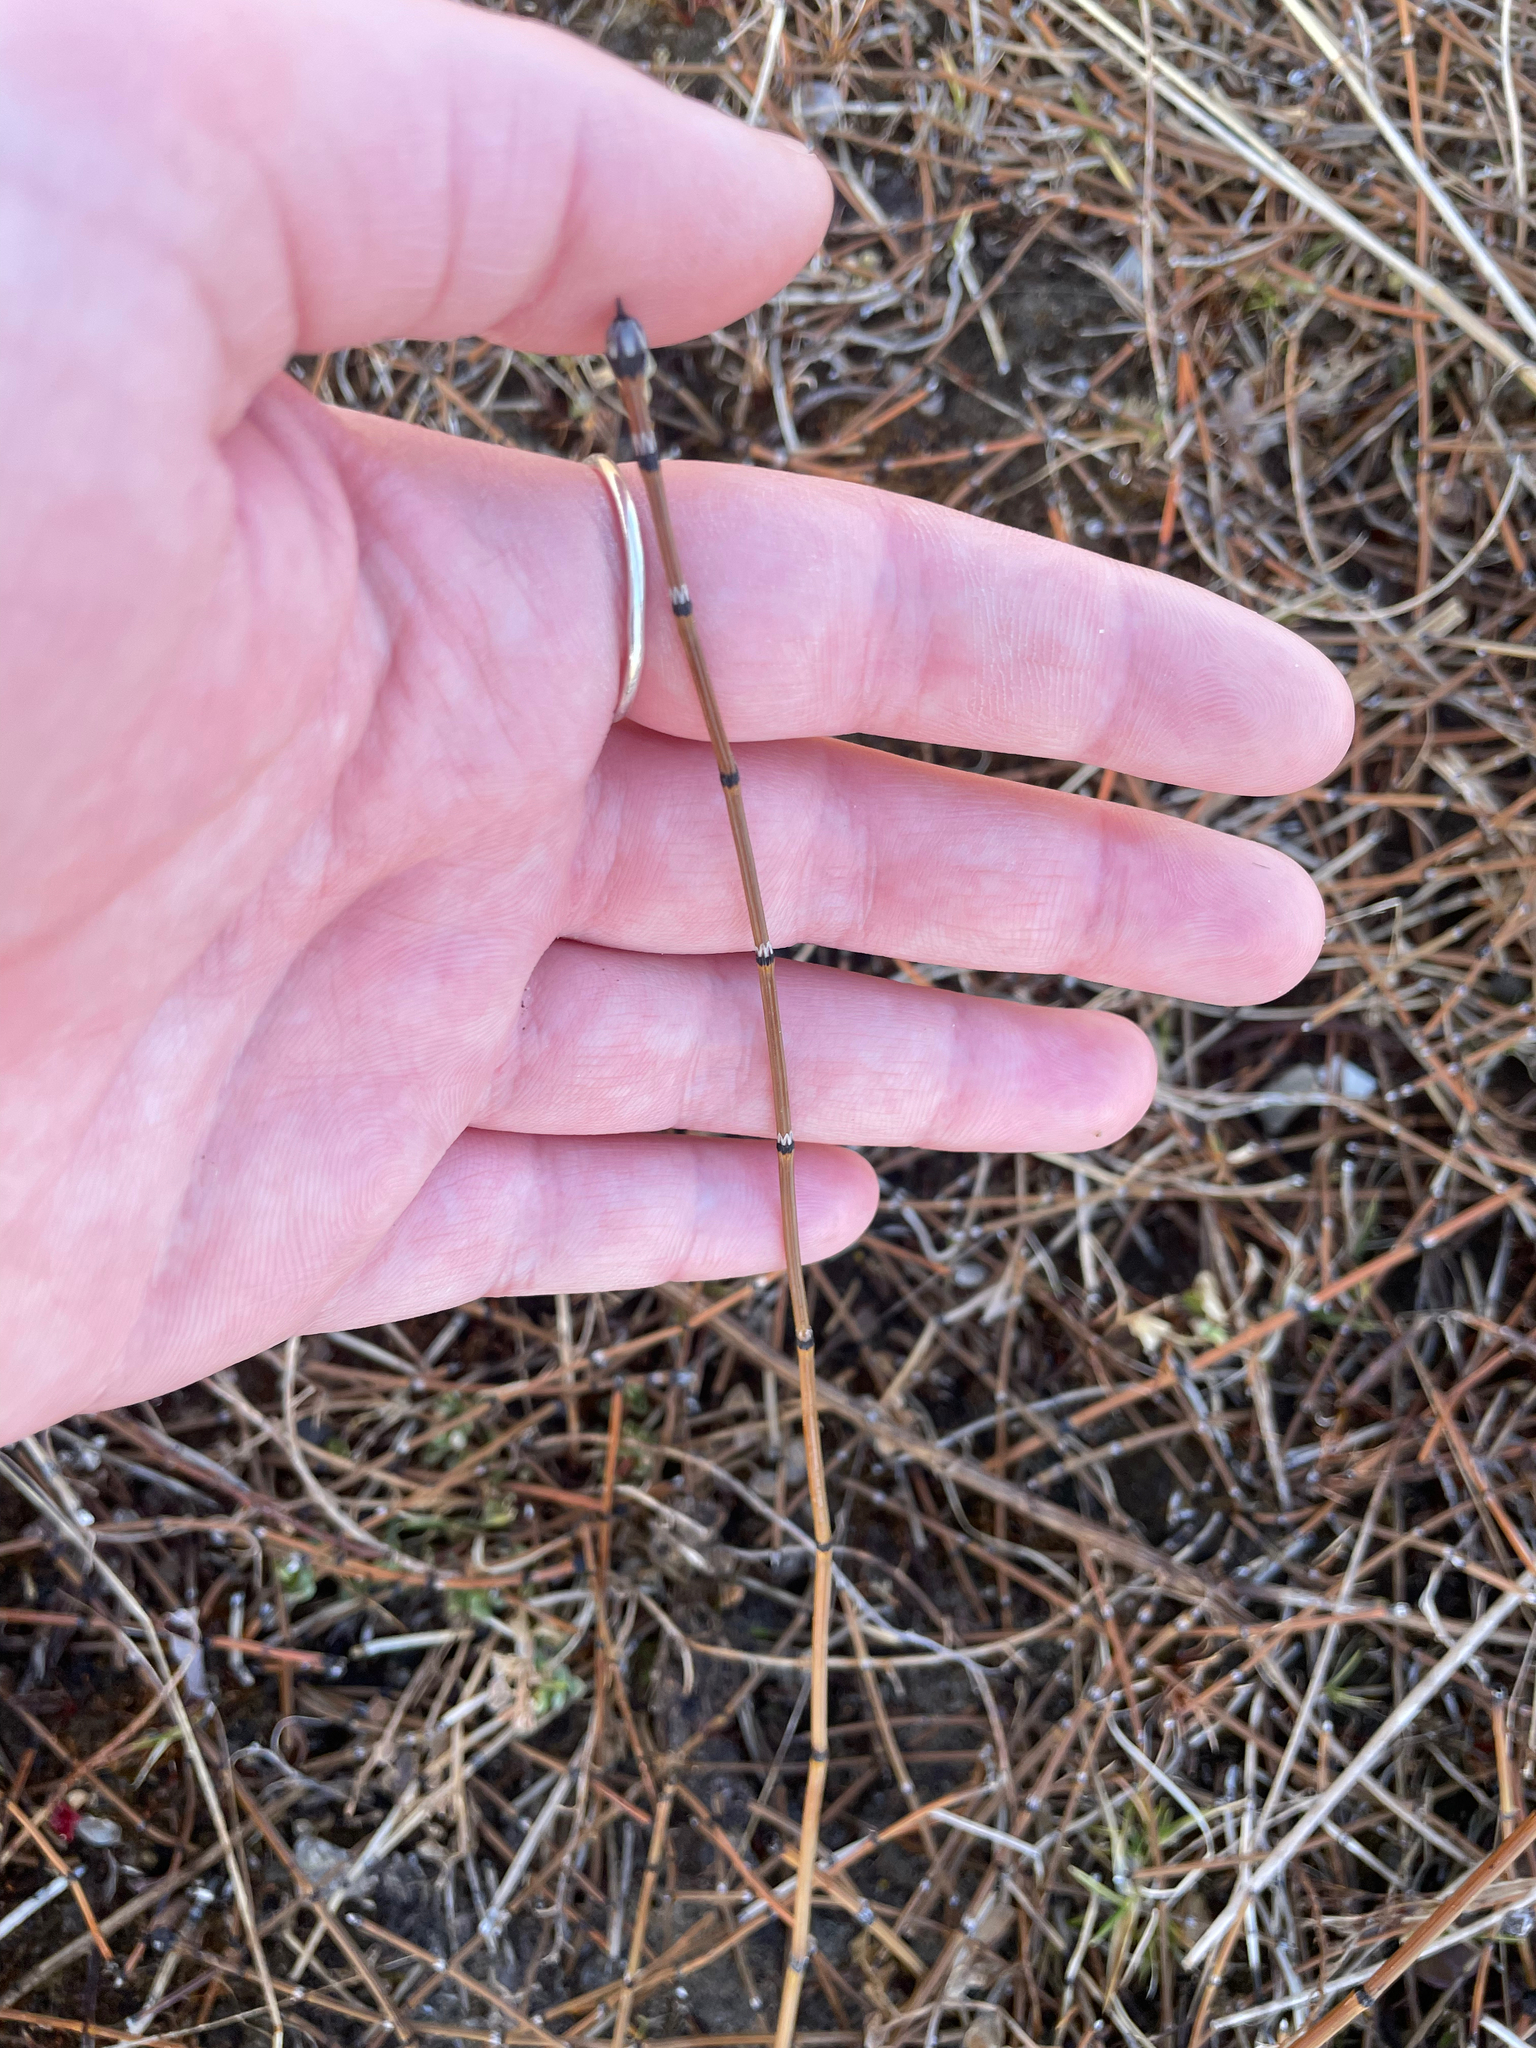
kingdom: Plantae
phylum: Tracheophyta
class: Polypodiopsida
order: Equisetales
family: Equisetaceae
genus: Equisetum
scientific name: Equisetum variegatum
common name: Variegated horsetail
